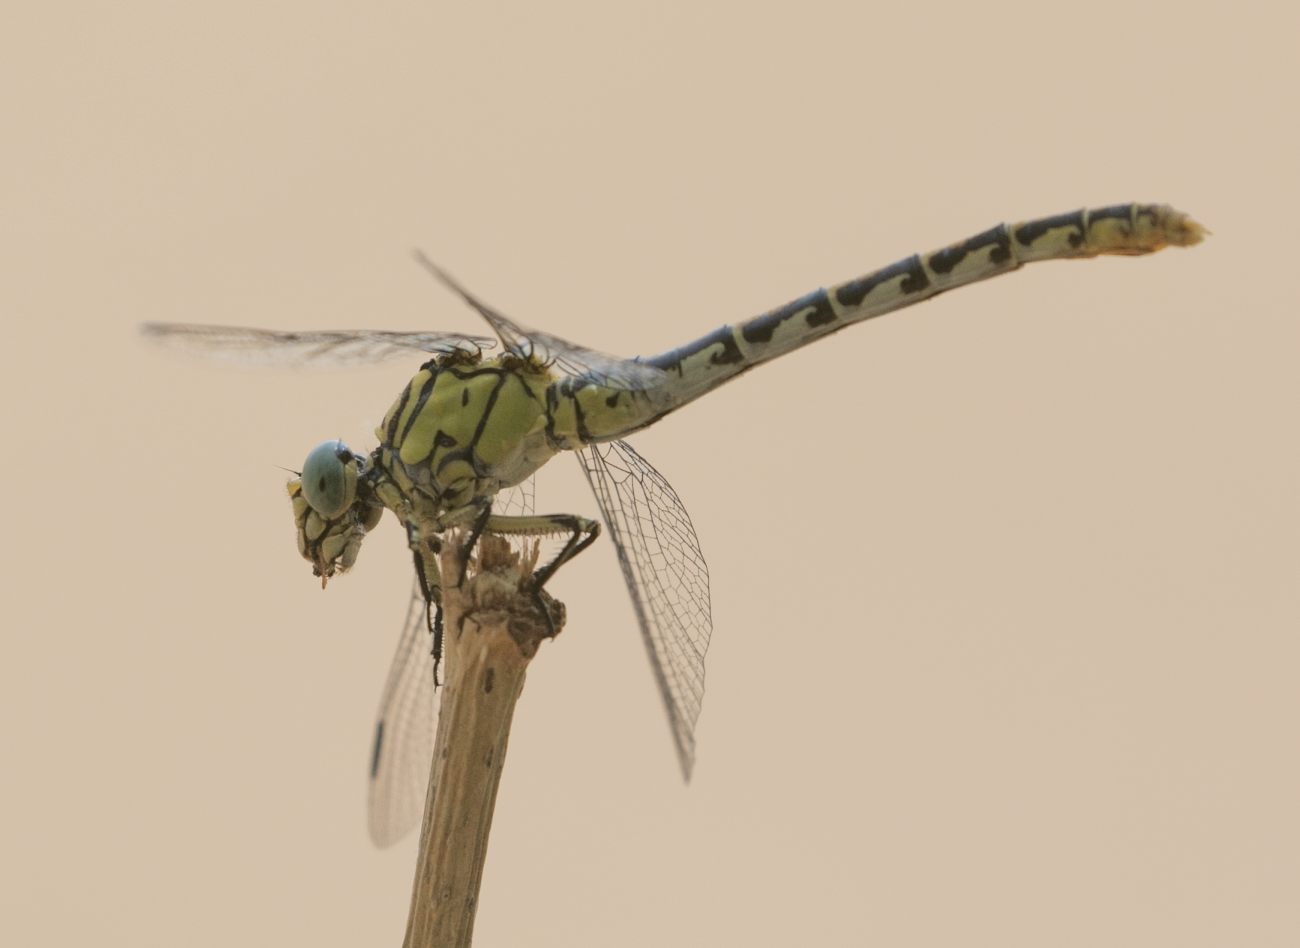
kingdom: Animalia
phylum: Arthropoda
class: Insecta
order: Odonata
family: Gomphidae
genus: Onychogomphus
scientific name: Onychogomphus forcipatus
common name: Small pincertail
